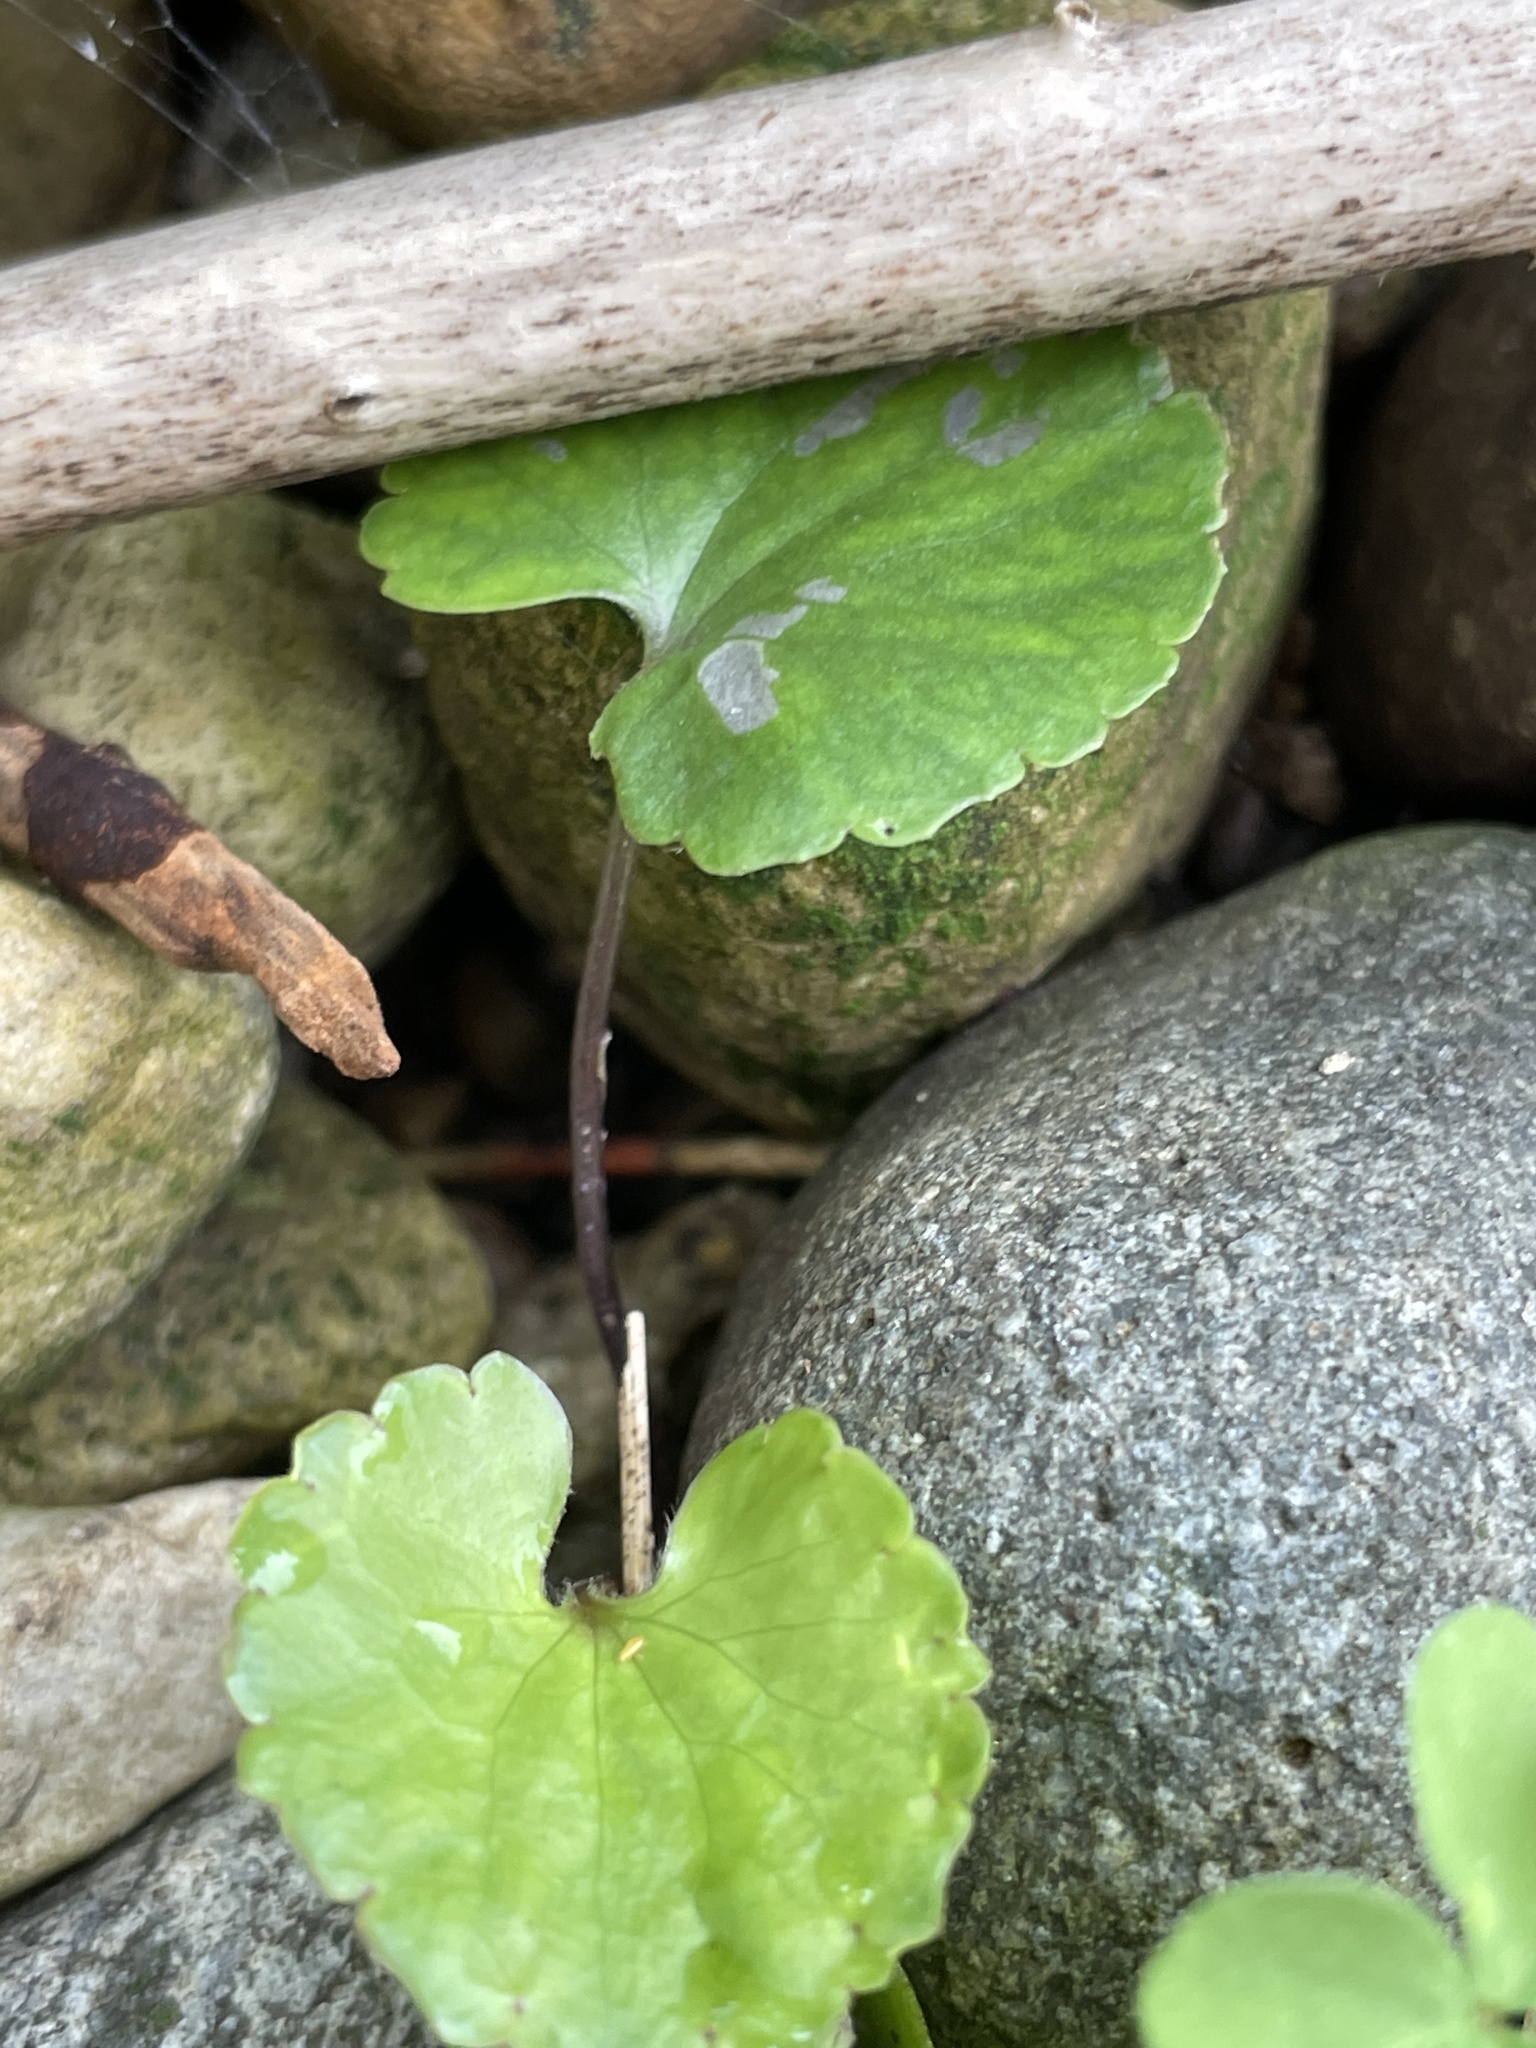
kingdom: Plantae
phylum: Tracheophyta
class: Magnoliopsida
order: Lamiales
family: Lamiaceae
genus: Glechoma
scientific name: Glechoma hederacea
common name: Ground ivy
